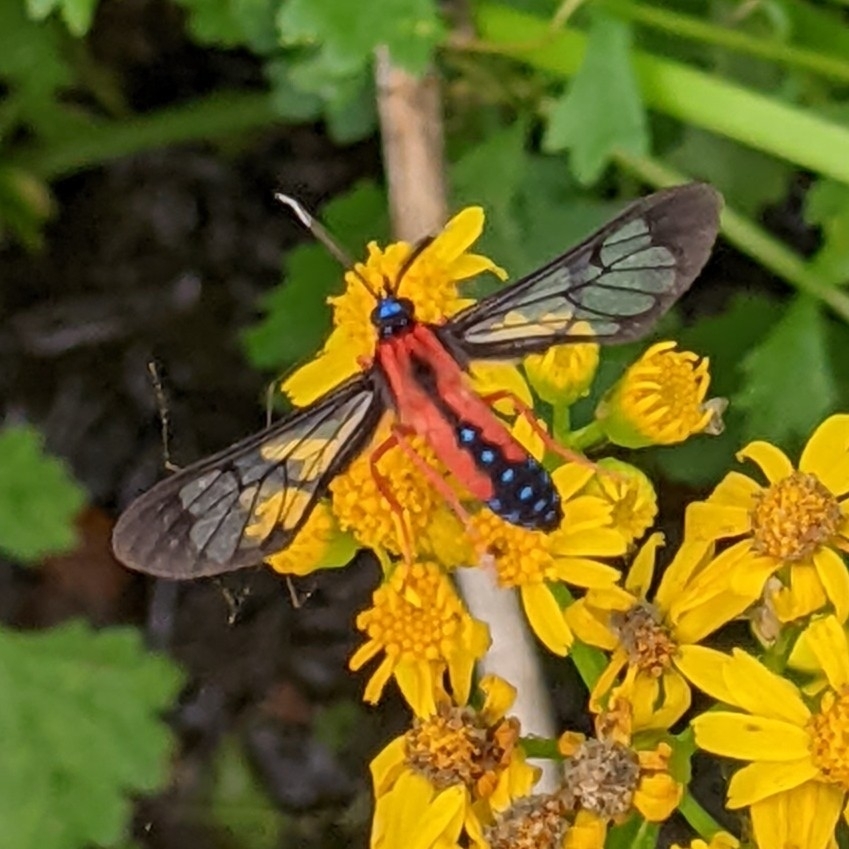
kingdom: Animalia
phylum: Arthropoda
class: Insecta
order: Lepidoptera
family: Erebidae
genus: Cosmosoma
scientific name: Cosmosoma myrodora
